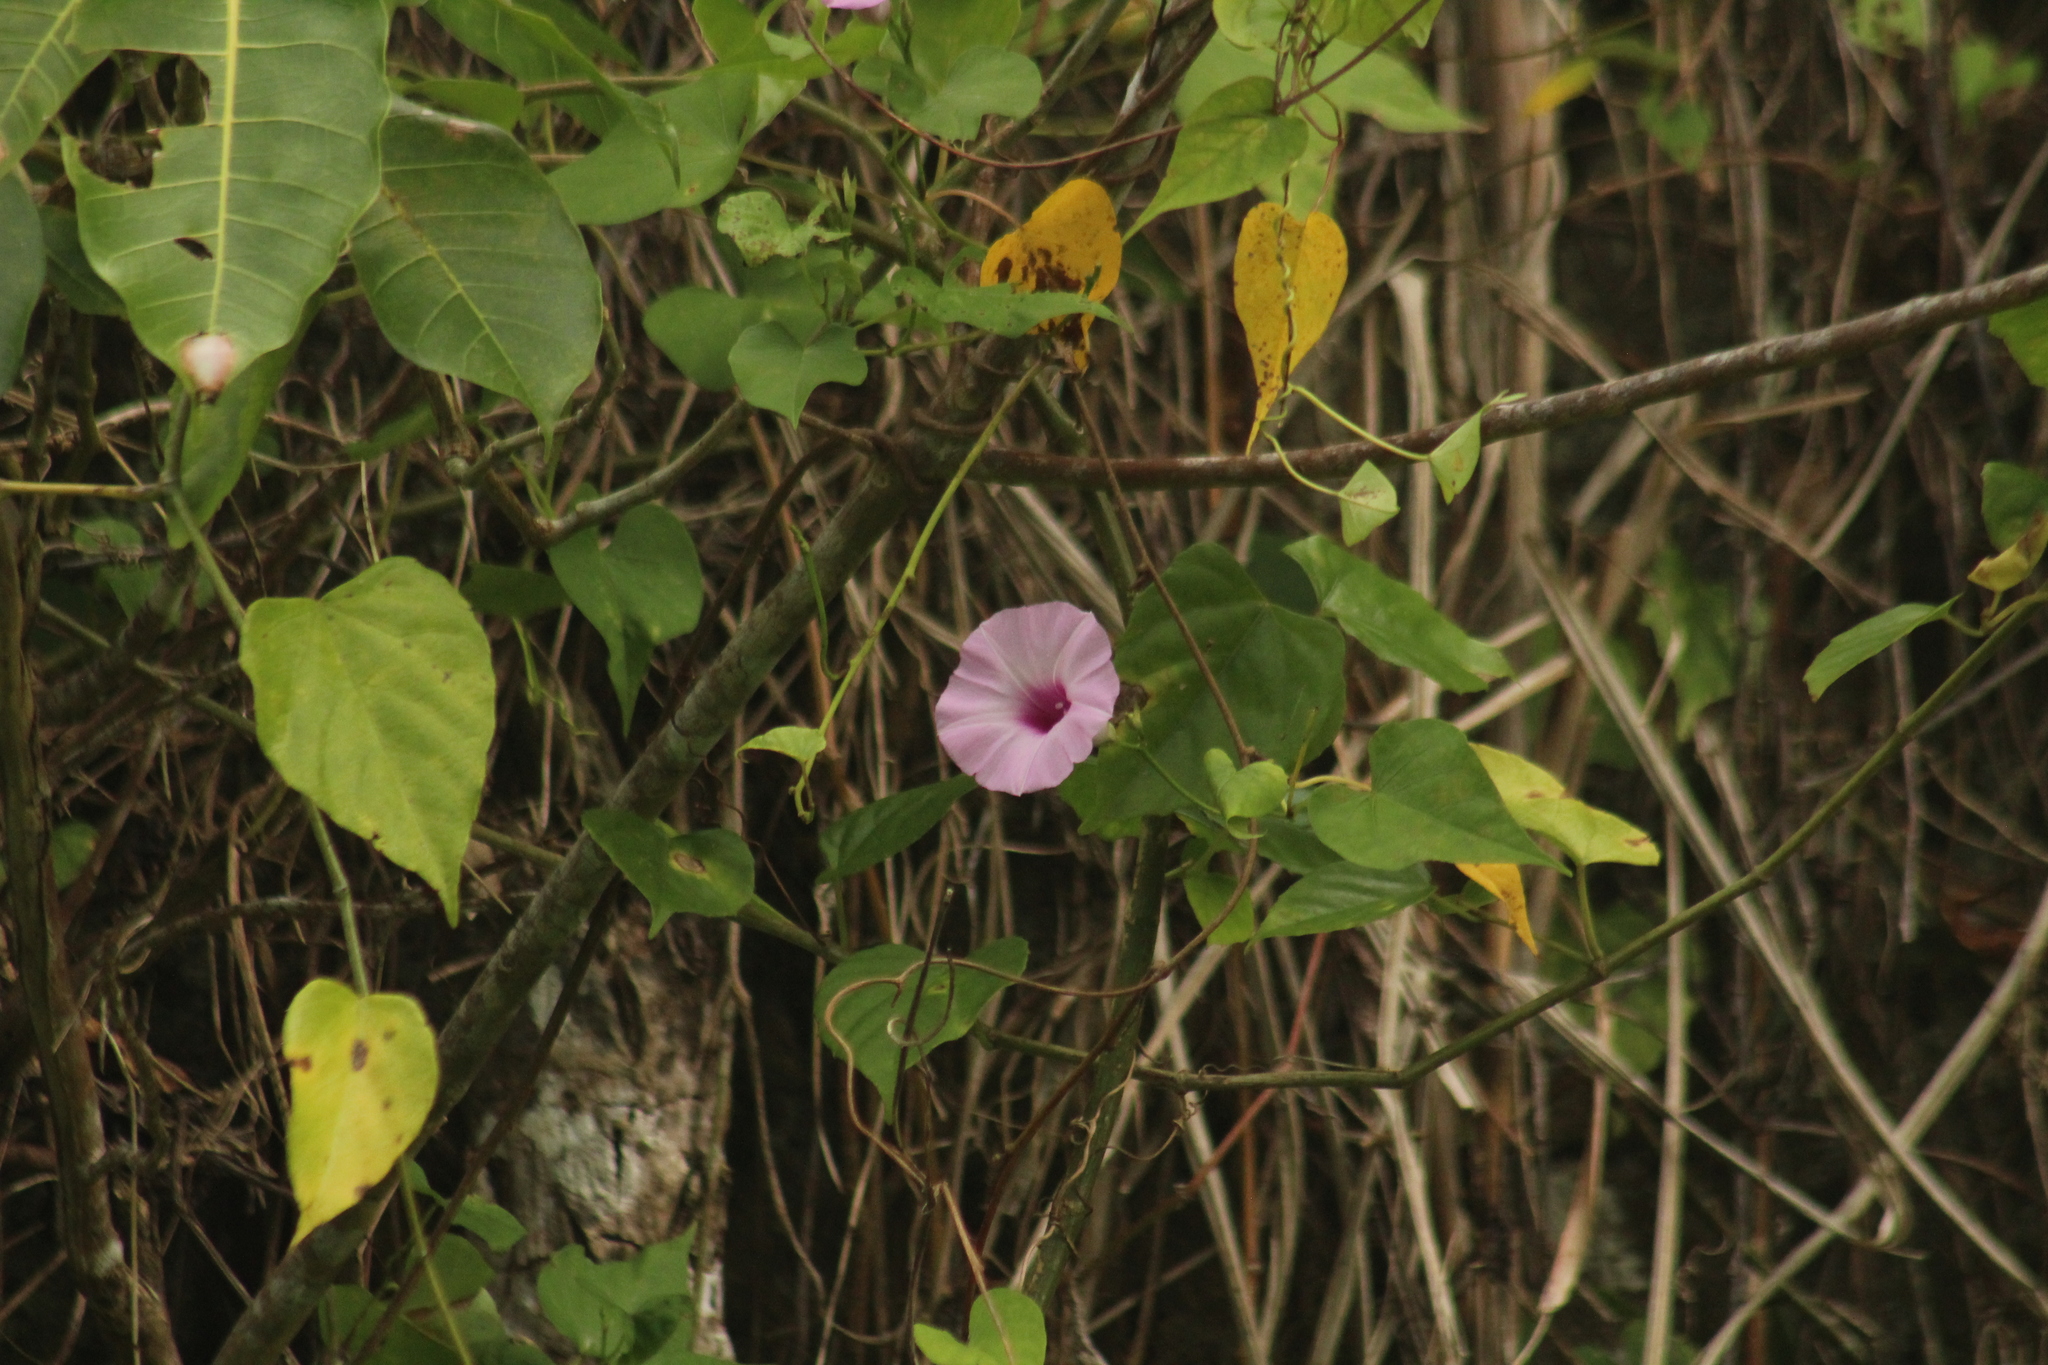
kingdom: Plantae
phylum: Tracheophyta
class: Magnoliopsida
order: Solanales
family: Convolvulaceae
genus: Ipomoea
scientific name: Ipomoea tiliacea
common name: Wild potato vine
